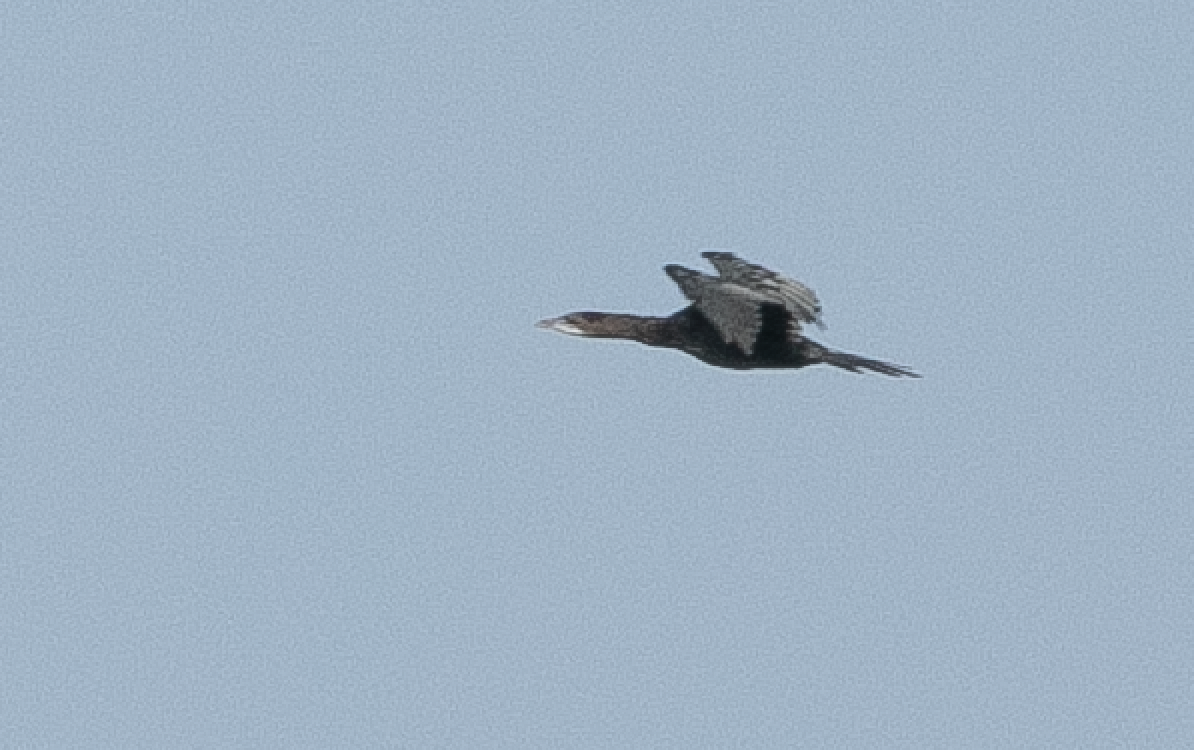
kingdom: Animalia
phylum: Chordata
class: Aves
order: Suliformes
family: Phalacrocoracidae
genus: Microcarbo
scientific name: Microcarbo pygmaeus
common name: Pygmy cormorant
